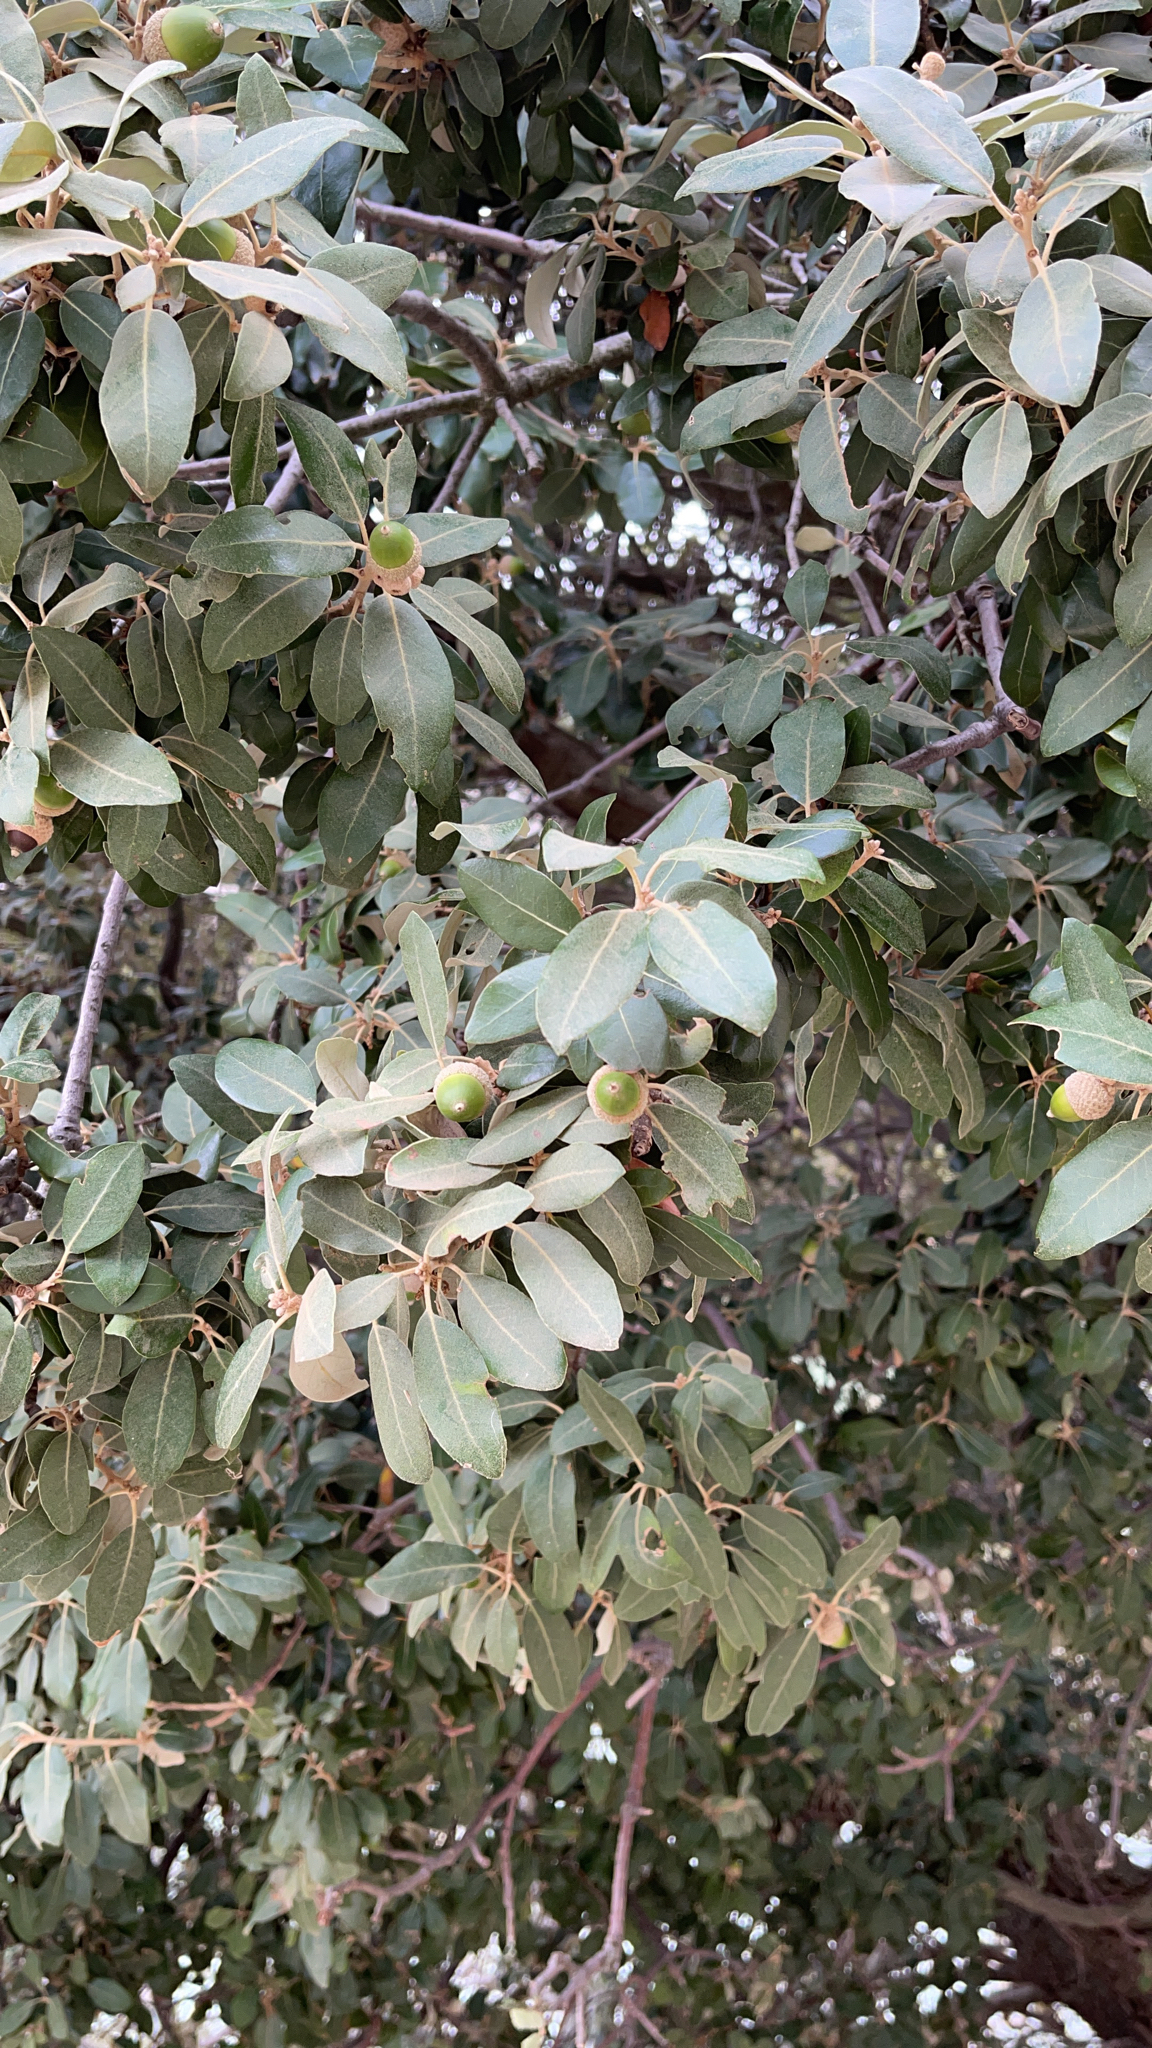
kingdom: Plantae
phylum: Tracheophyta
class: Magnoliopsida
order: Fagales
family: Fagaceae
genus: Quercus
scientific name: Quercus ilex
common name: Evergreen oak
